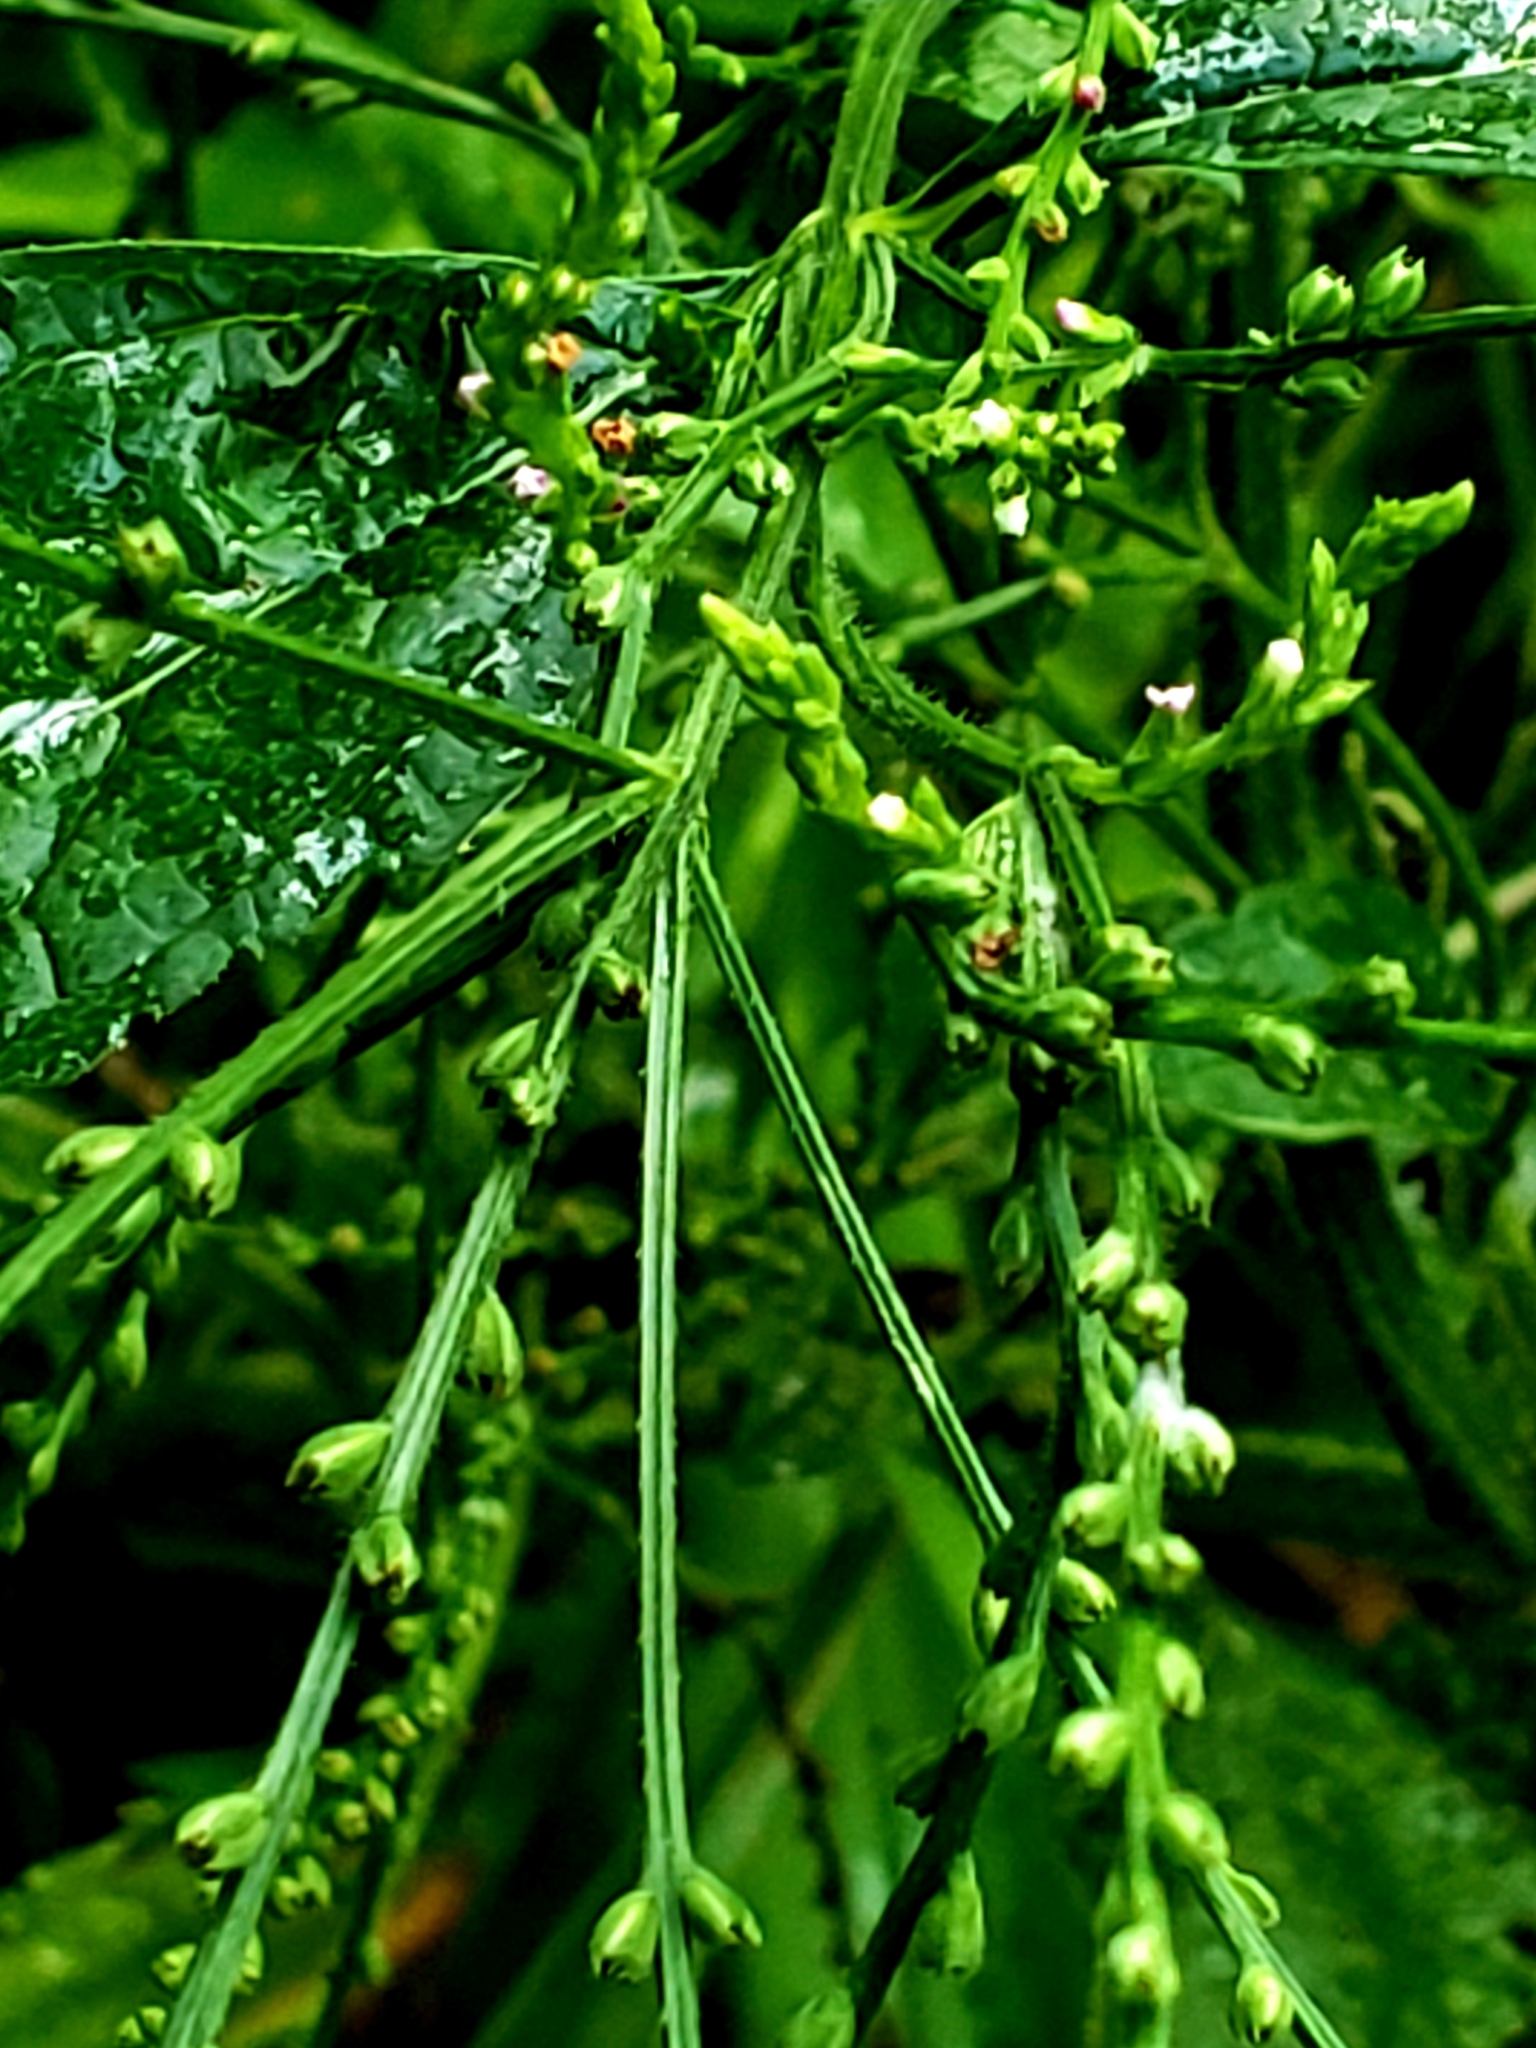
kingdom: Plantae
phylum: Tracheophyta
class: Magnoliopsida
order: Lamiales
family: Verbenaceae
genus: Verbena
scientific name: Verbena urticifolia
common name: Nettle-leaved vervain
